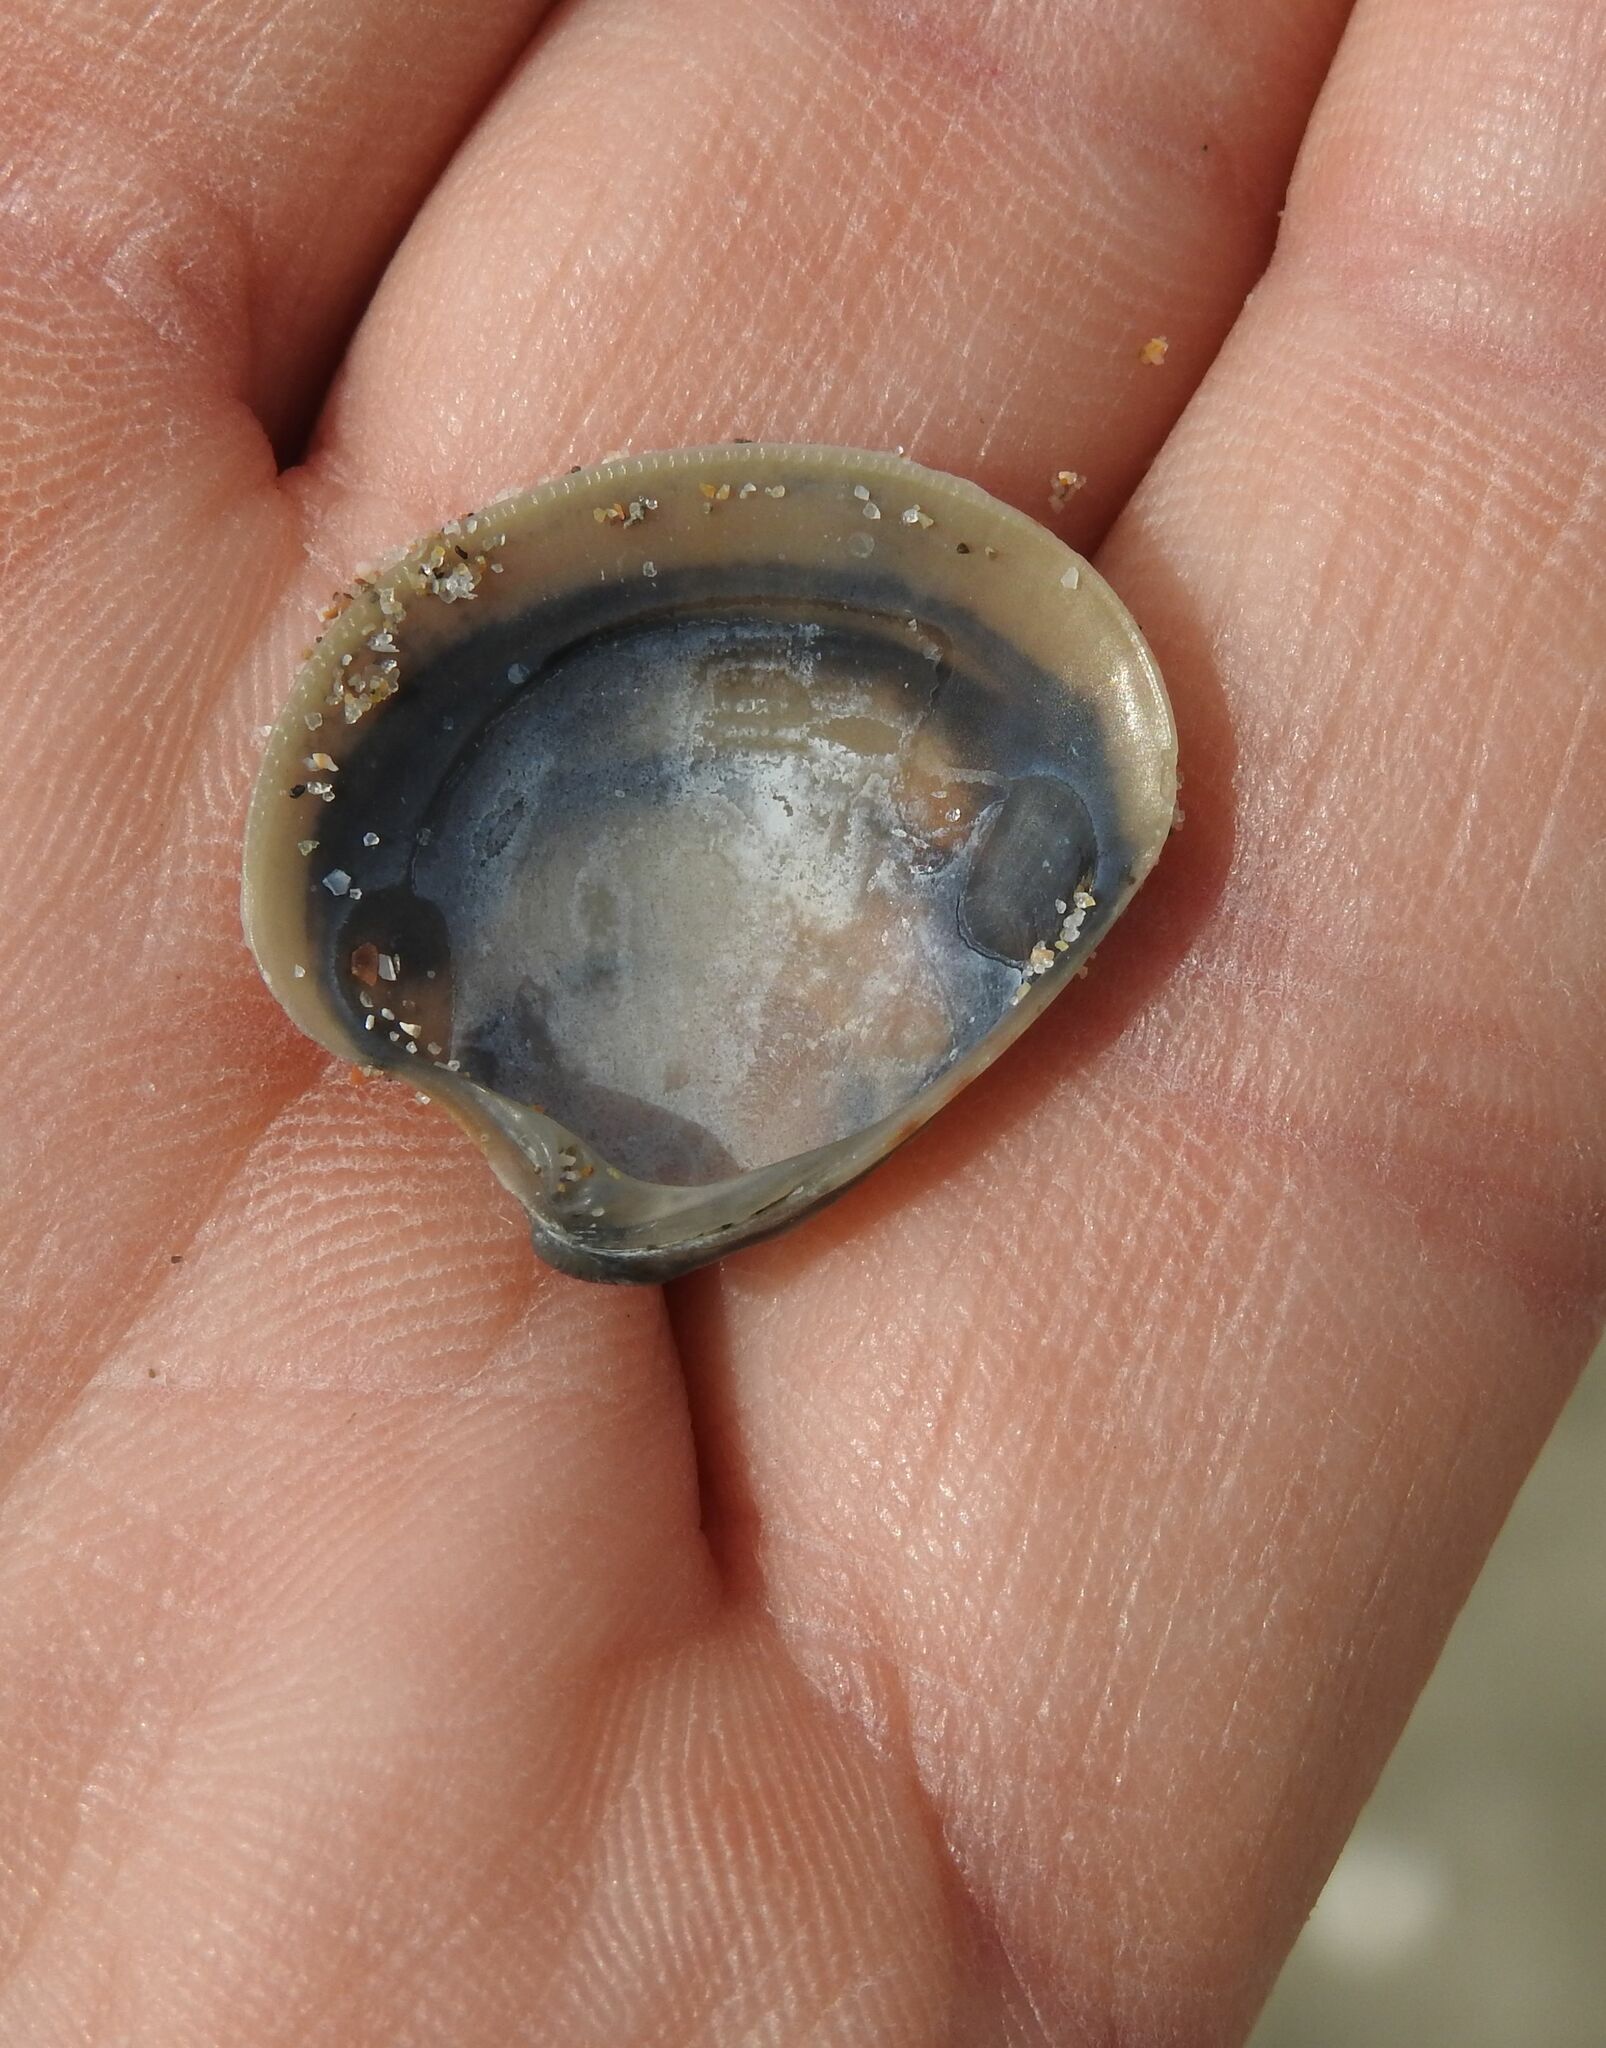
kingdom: Animalia
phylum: Mollusca
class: Bivalvia
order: Venerida
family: Veneridae
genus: Chamelea
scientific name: Chamelea gallina
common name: Chicken venus
